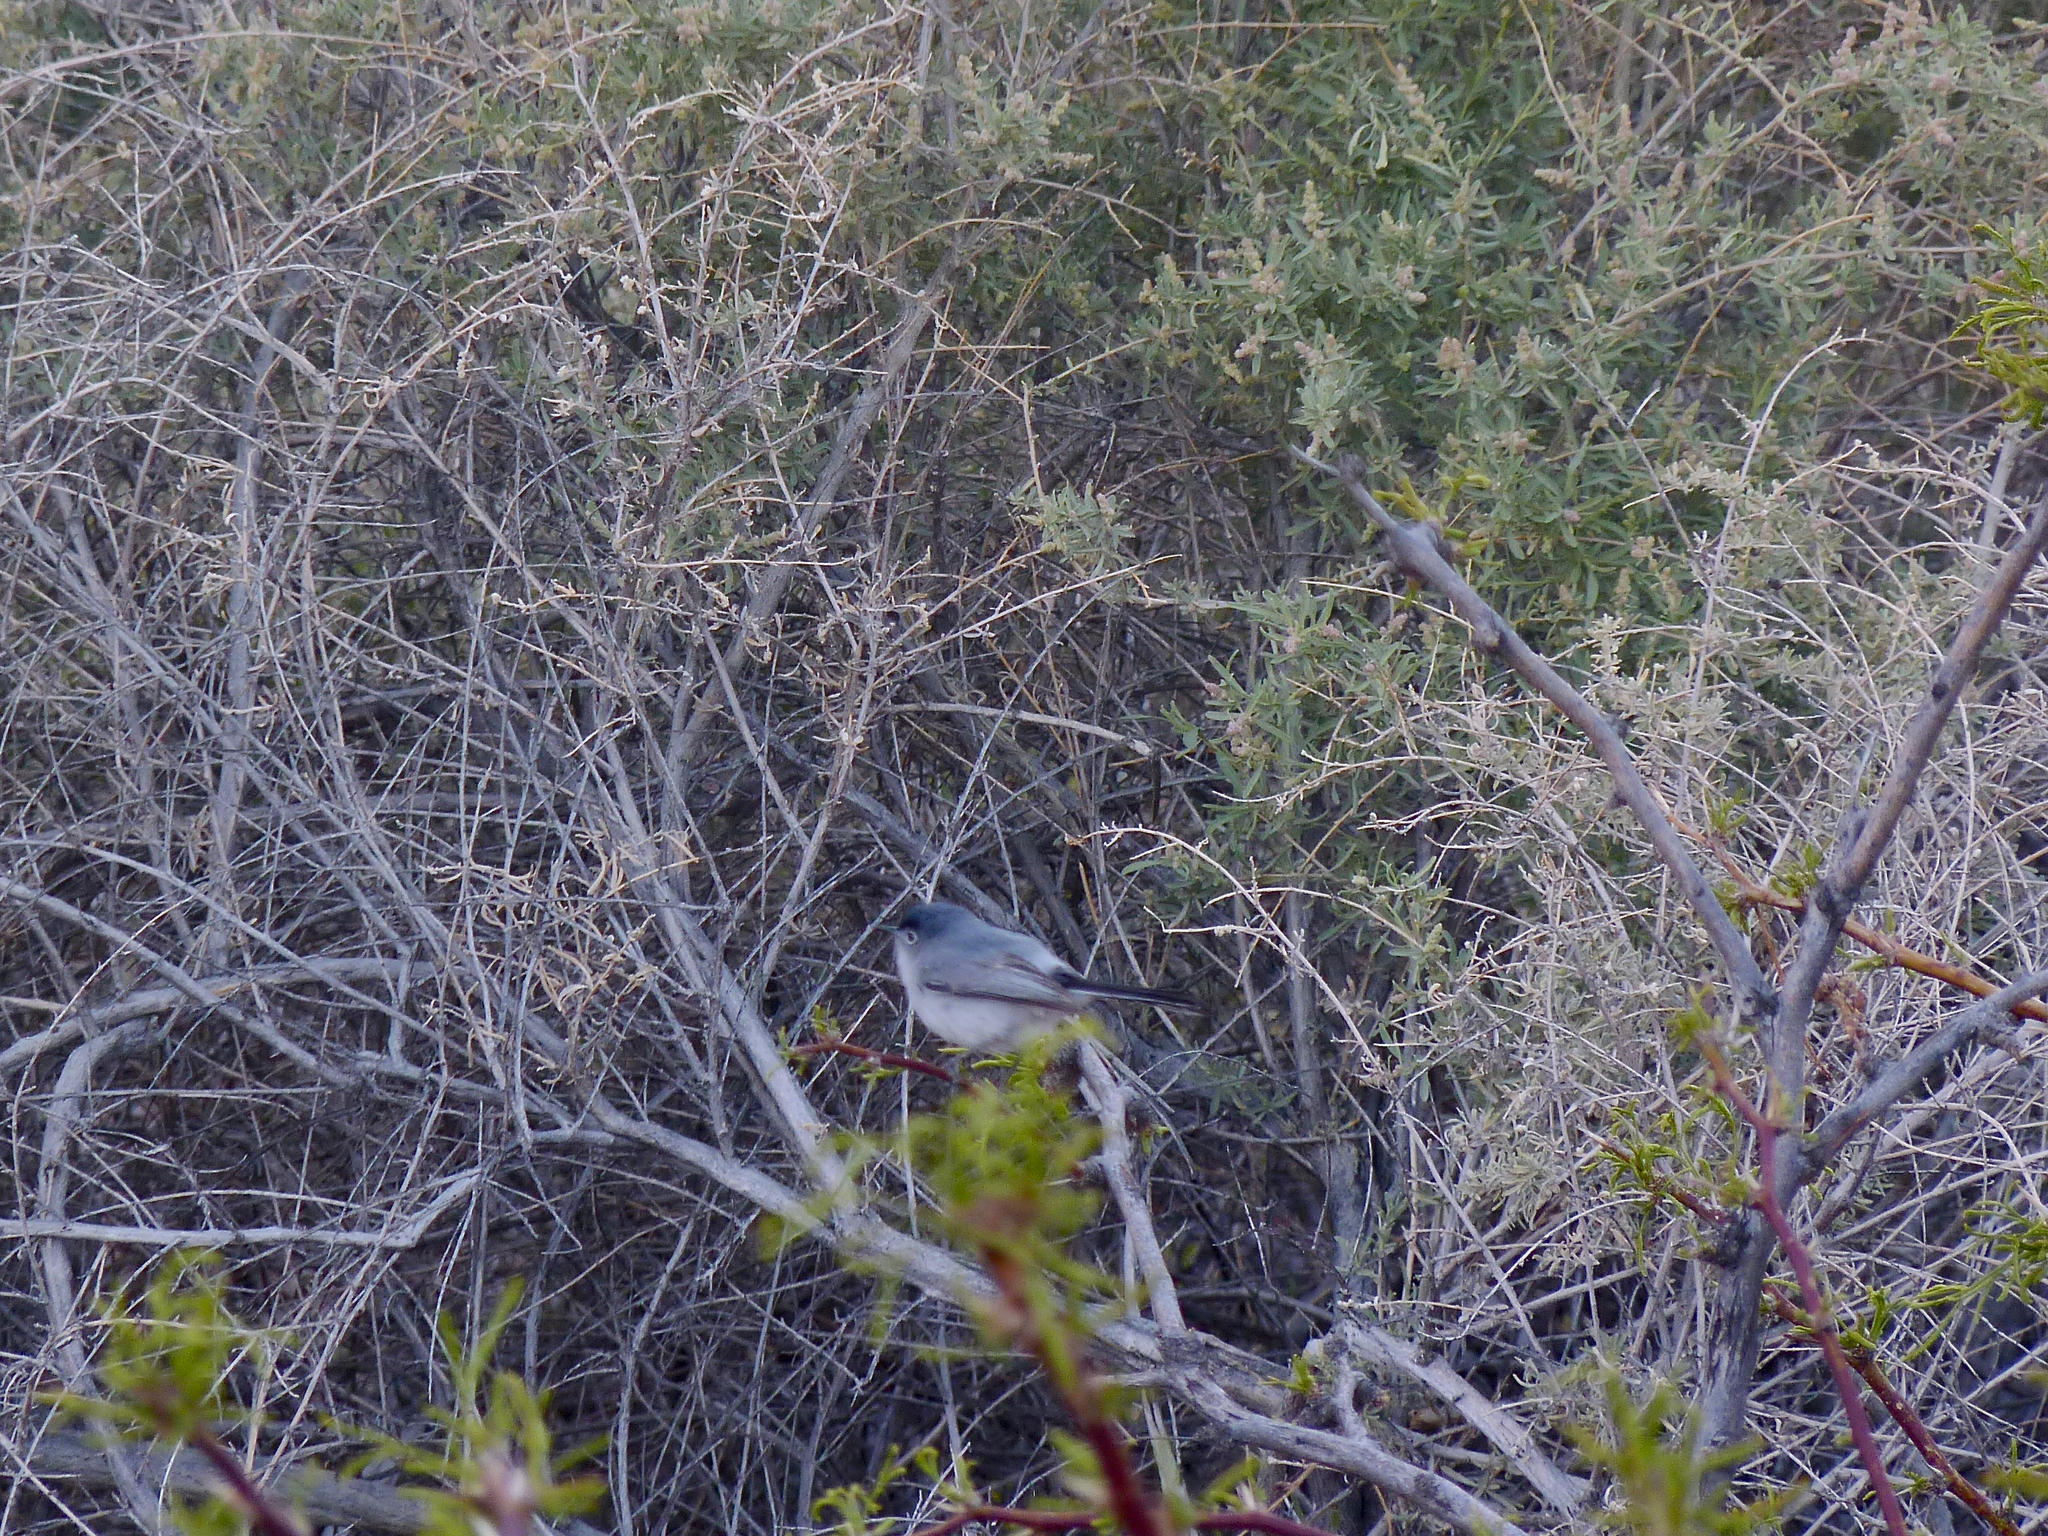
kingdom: Animalia
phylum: Chordata
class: Aves
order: Passeriformes
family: Polioptilidae
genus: Polioptila
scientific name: Polioptila caerulea
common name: Blue-gray gnatcatcher
